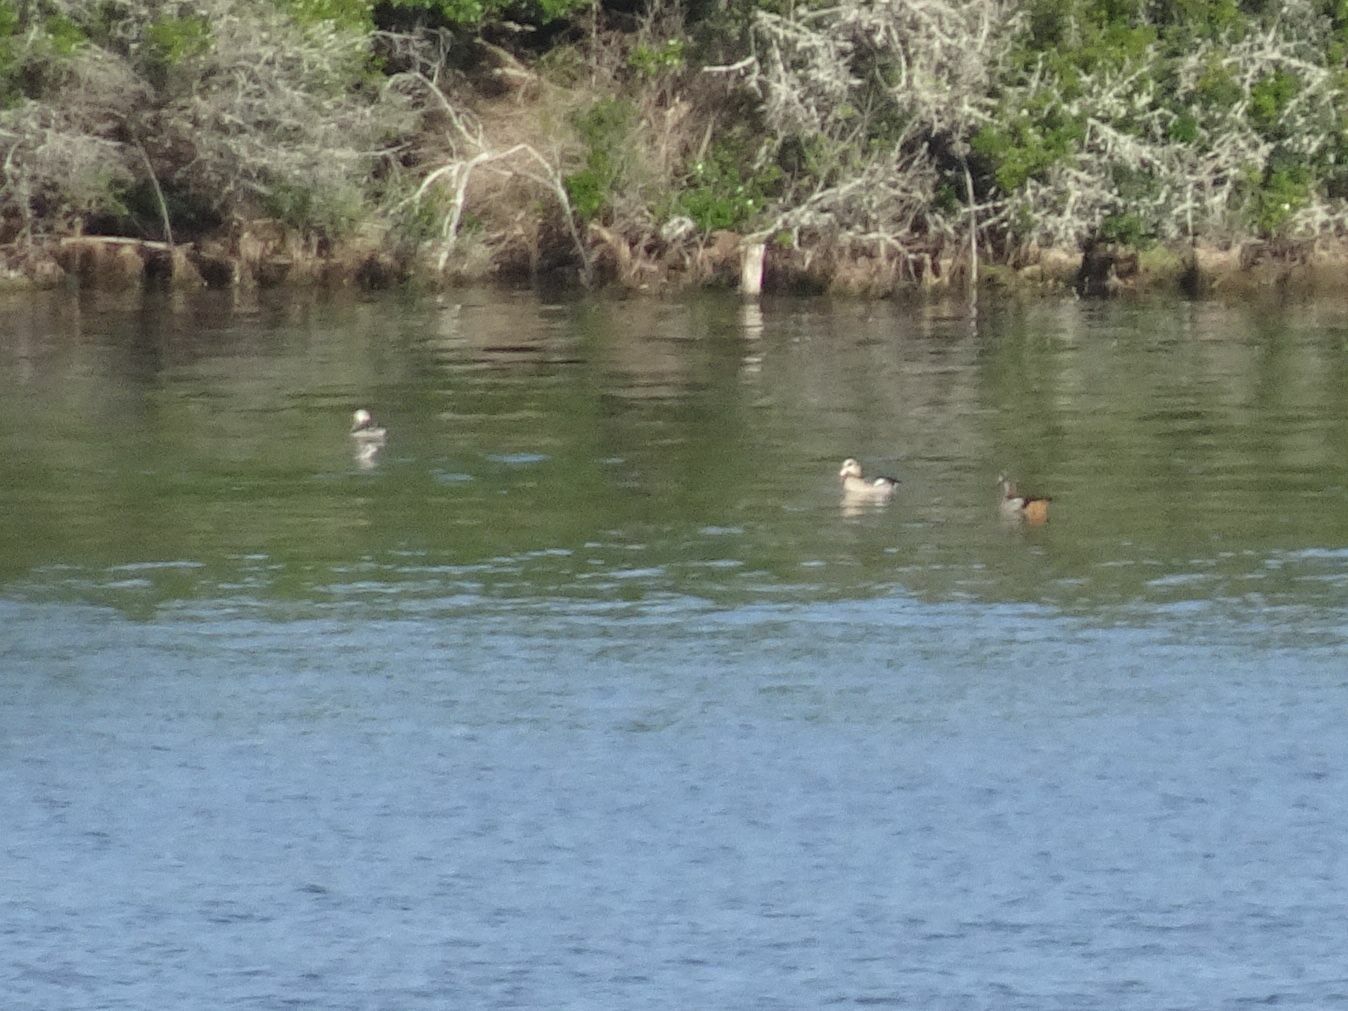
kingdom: Animalia
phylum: Chordata
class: Aves
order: Anseriformes
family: Anatidae
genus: Alopochen
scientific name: Alopochen aegyptiaca
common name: Egyptian goose
